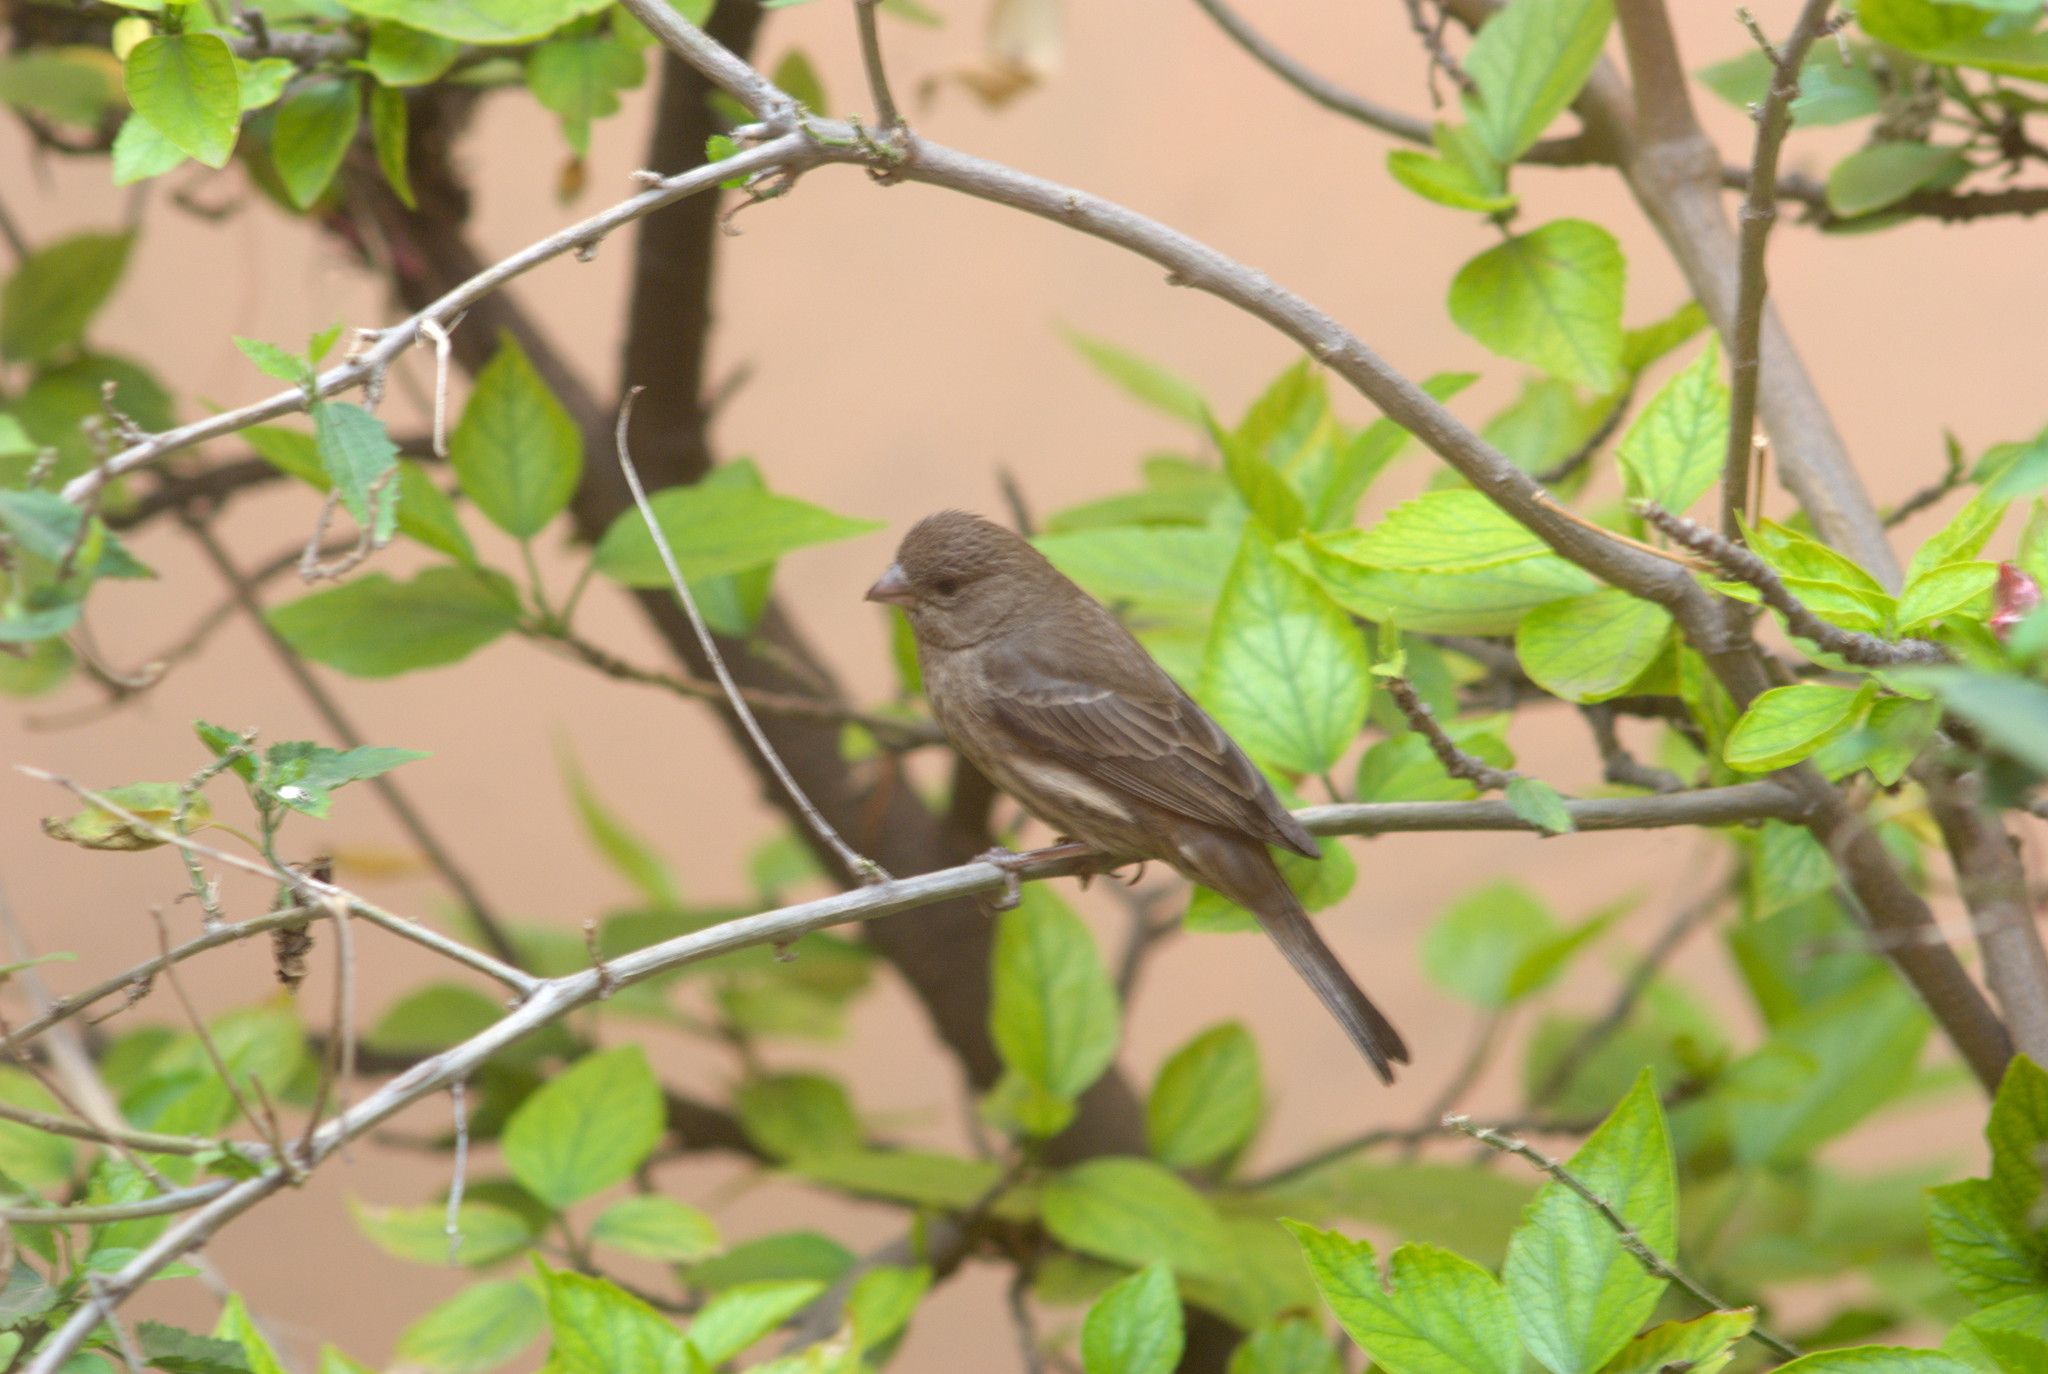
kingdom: Animalia
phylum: Chordata
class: Aves
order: Passeriformes
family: Fringillidae
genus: Haemorhous
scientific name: Haemorhous mexicanus
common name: House finch
